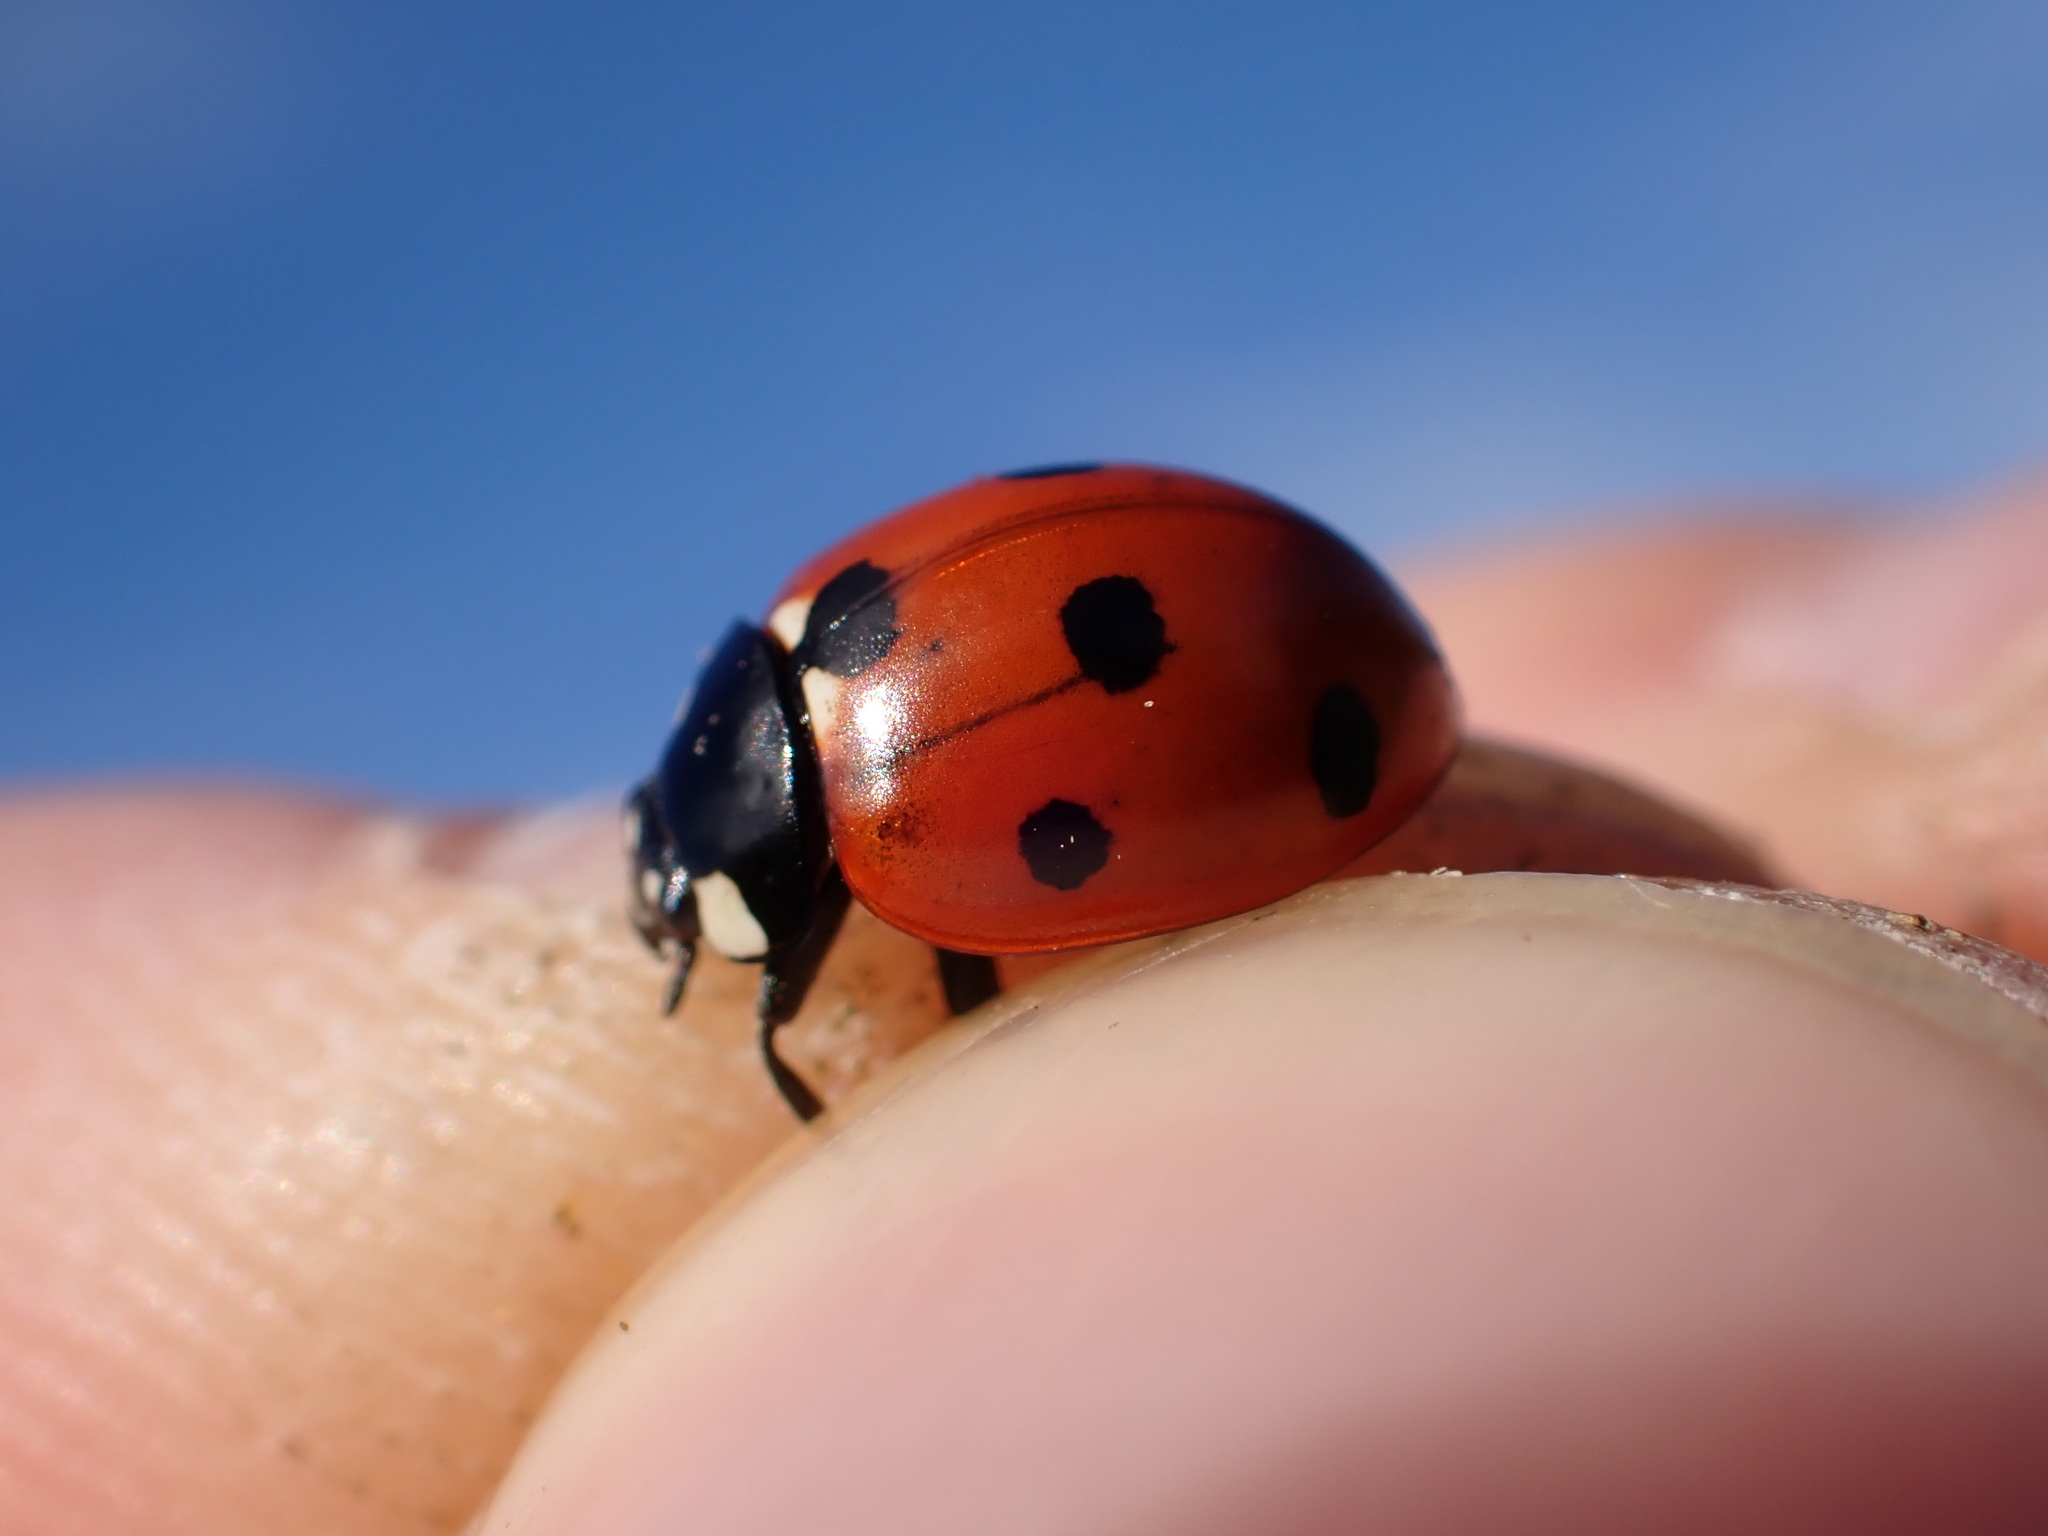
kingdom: Animalia
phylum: Arthropoda
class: Insecta
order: Coleoptera
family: Coccinellidae
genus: Coccinella
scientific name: Coccinella septempunctata
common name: Sevenspotted lady beetle
